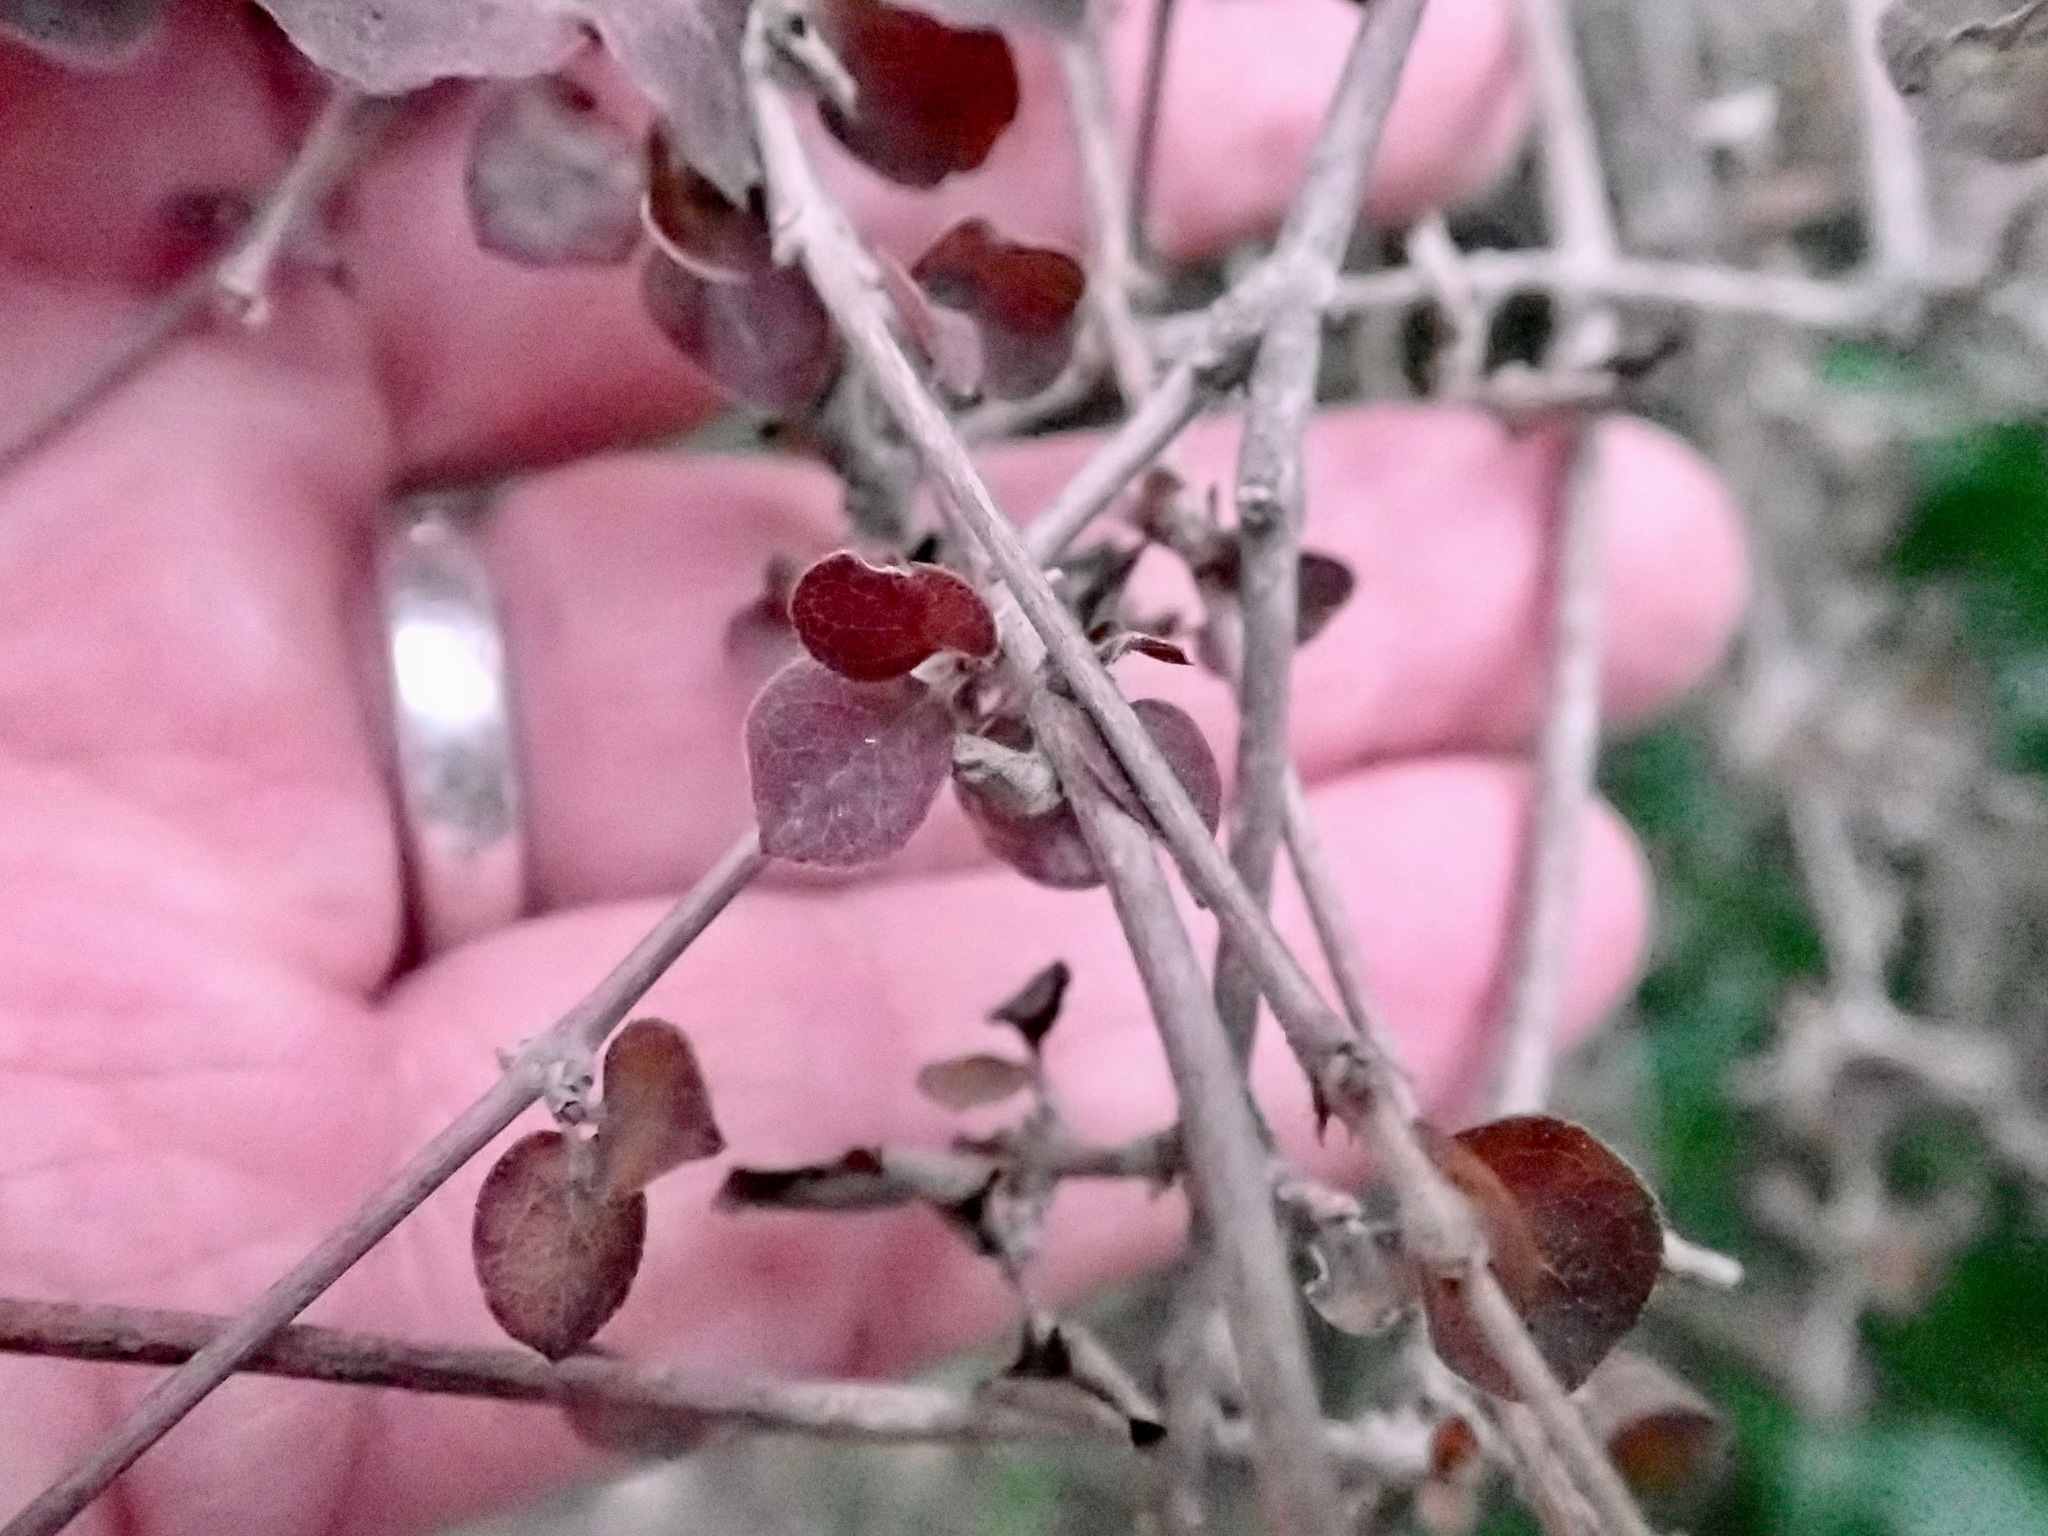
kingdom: Plantae
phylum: Tracheophyta
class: Magnoliopsida
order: Gentianales
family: Rubiaceae
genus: Coprosma
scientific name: Coprosma rotundifolia
